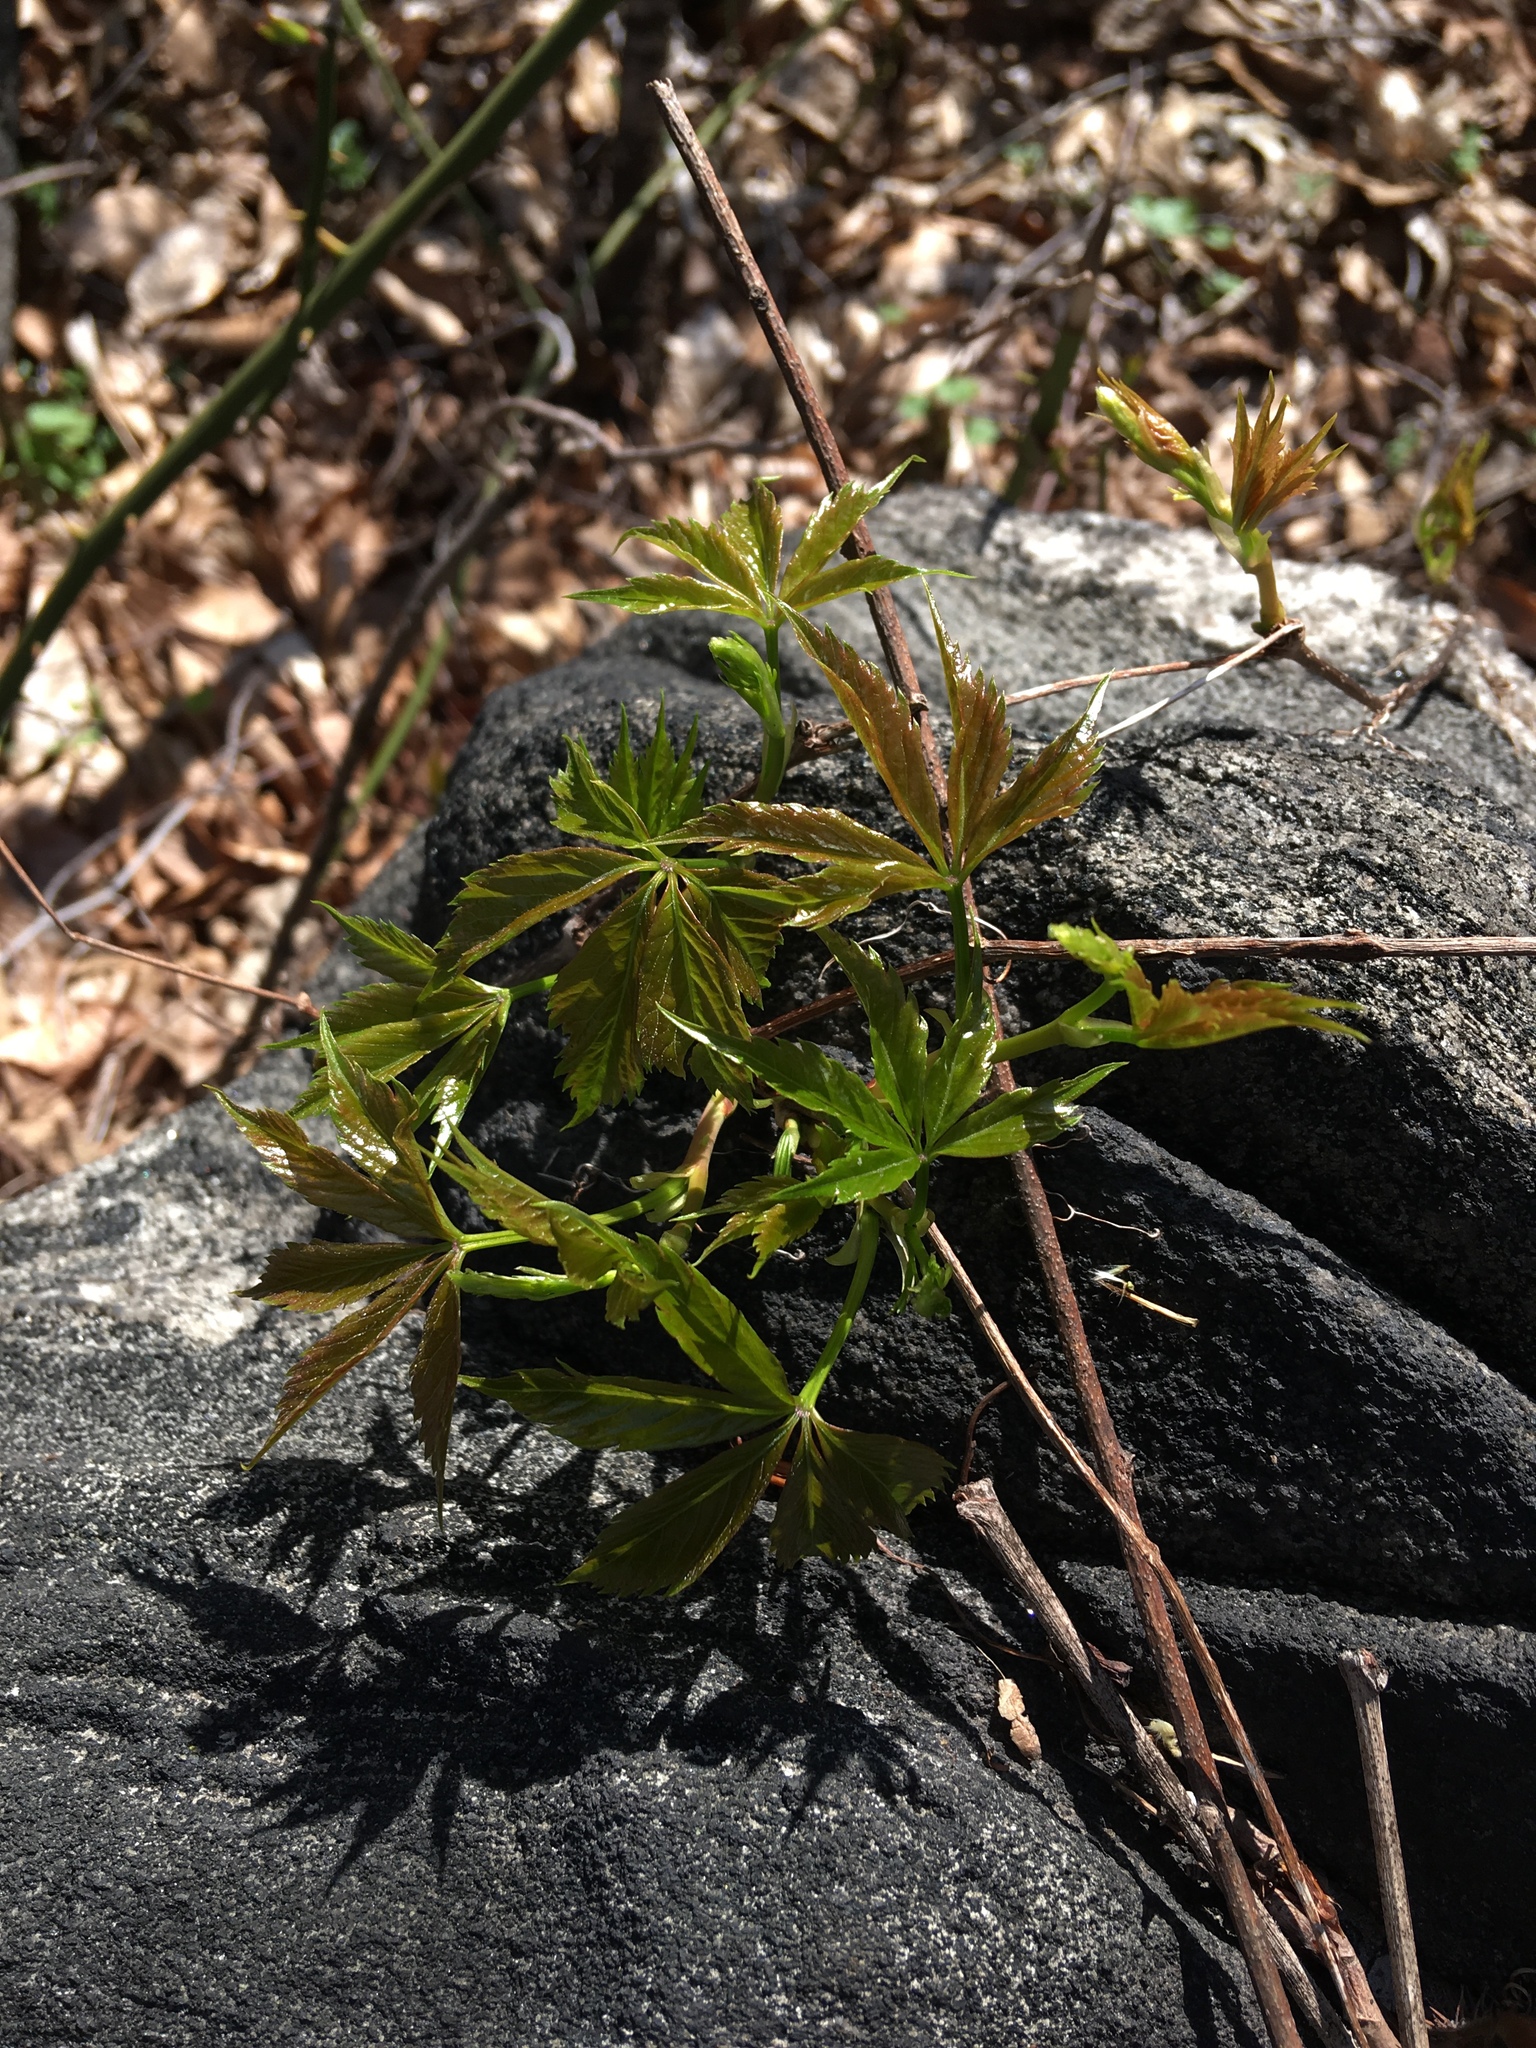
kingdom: Plantae
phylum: Tracheophyta
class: Magnoliopsida
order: Vitales
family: Vitaceae
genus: Parthenocissus
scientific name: Parthenocissus quinquefolia
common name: Virginia-creeper
